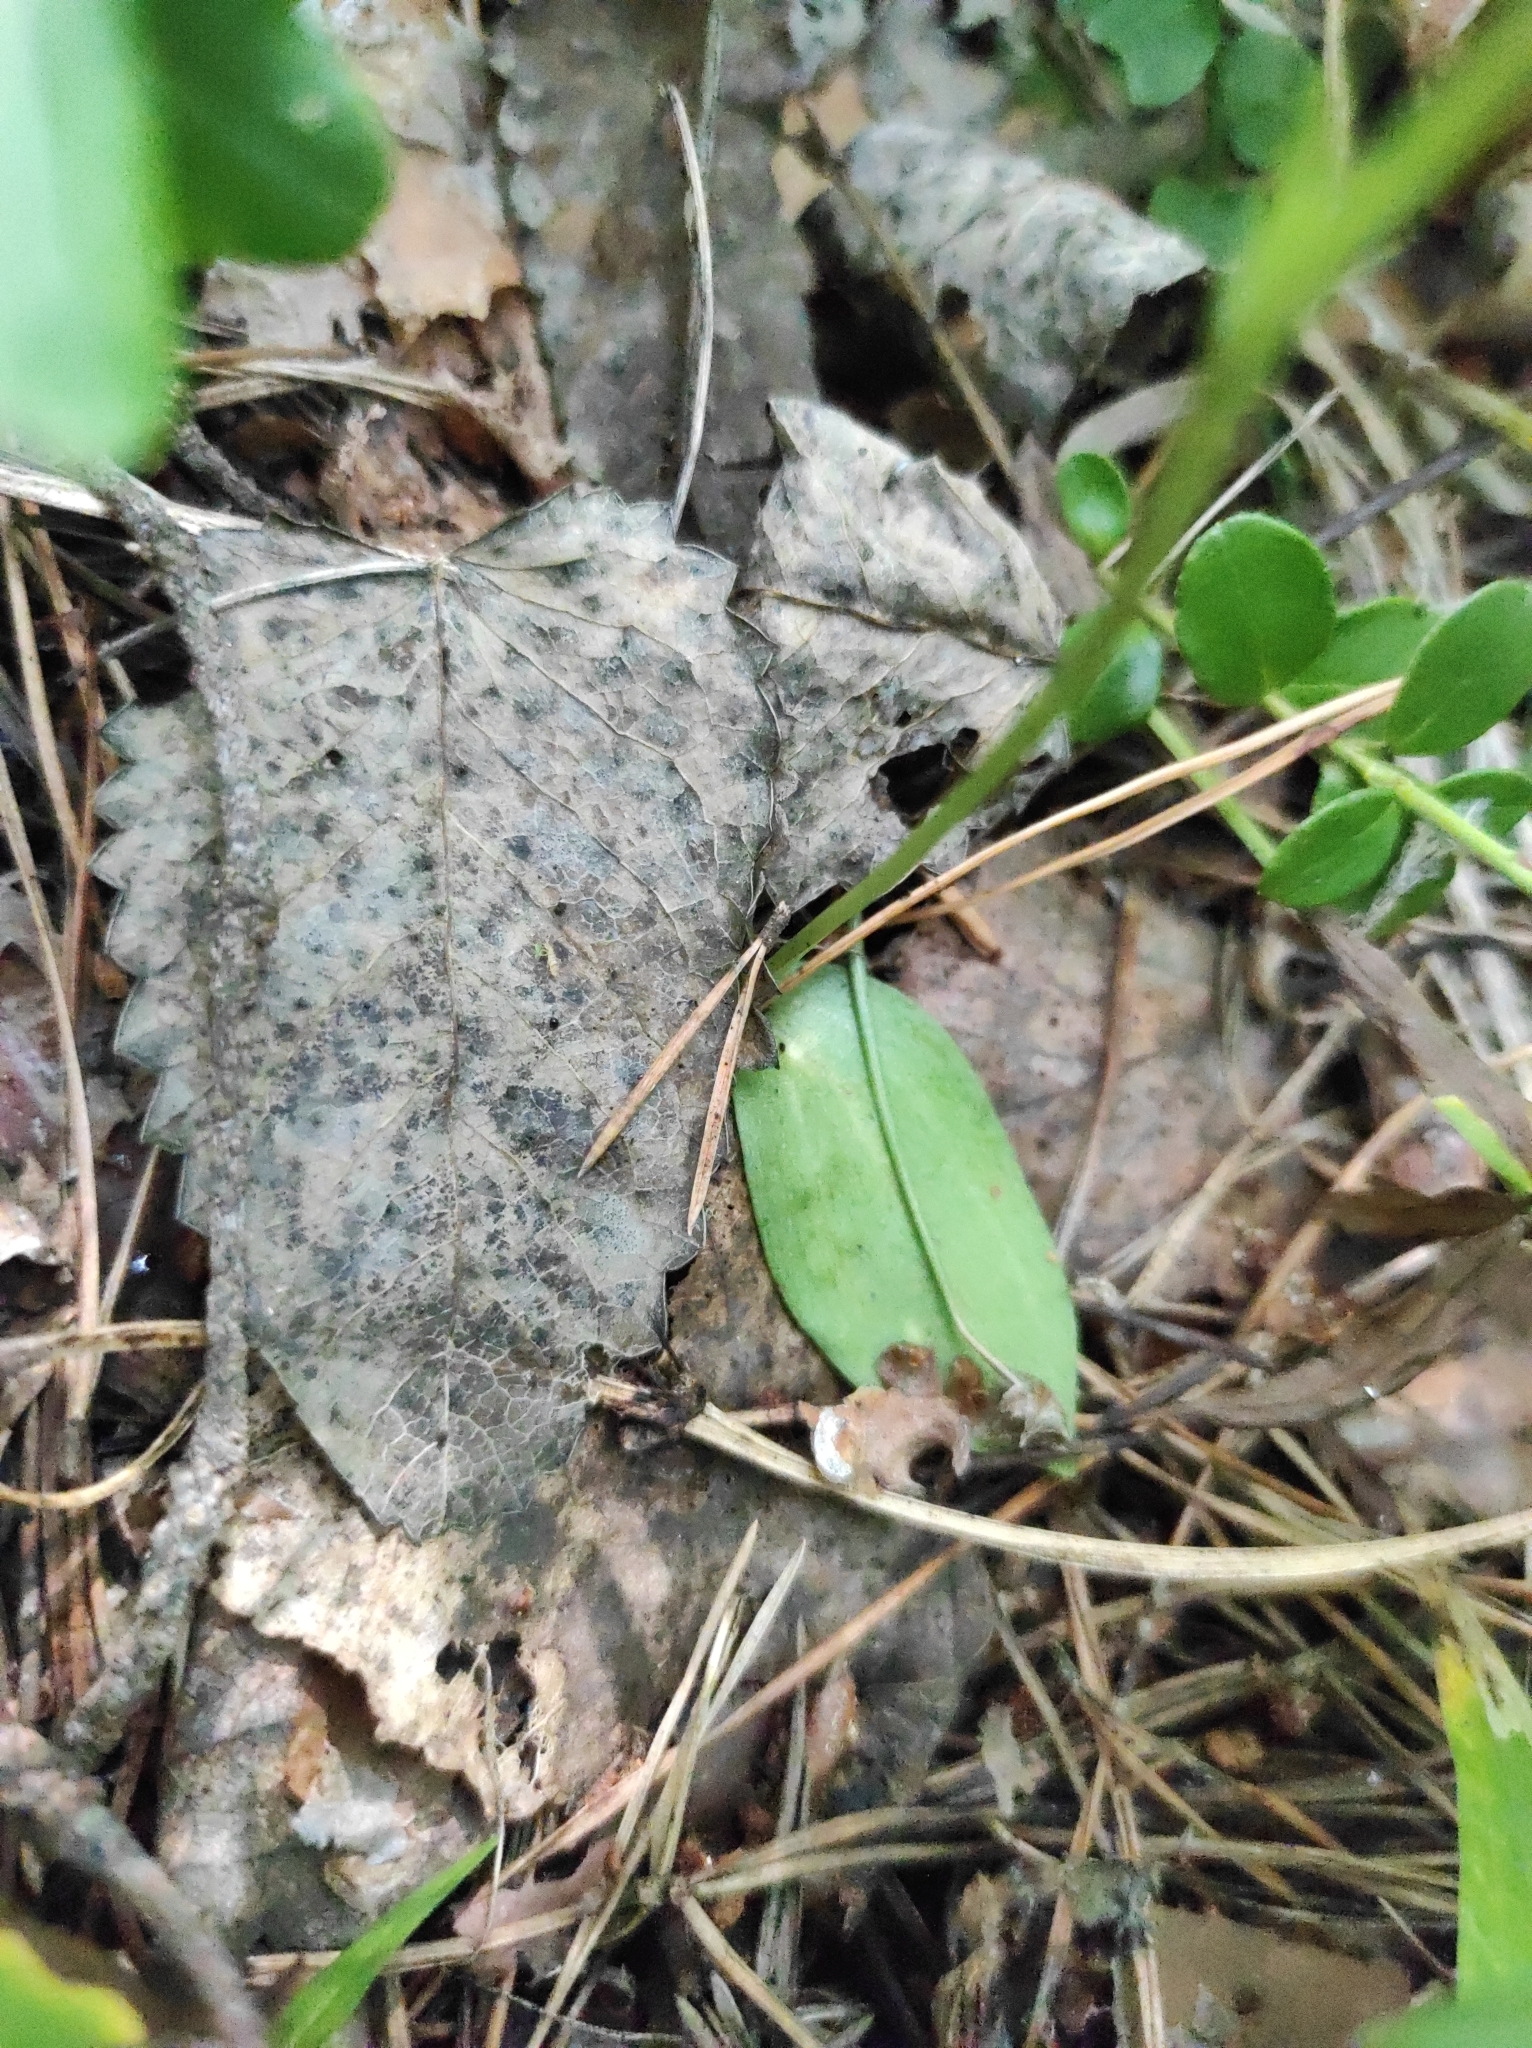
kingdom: Plantae
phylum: Tracheophyta
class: Liliopsida
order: Asparagales
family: Orchidaceae
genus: Hemipilia
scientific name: Hemipilia cucullata
